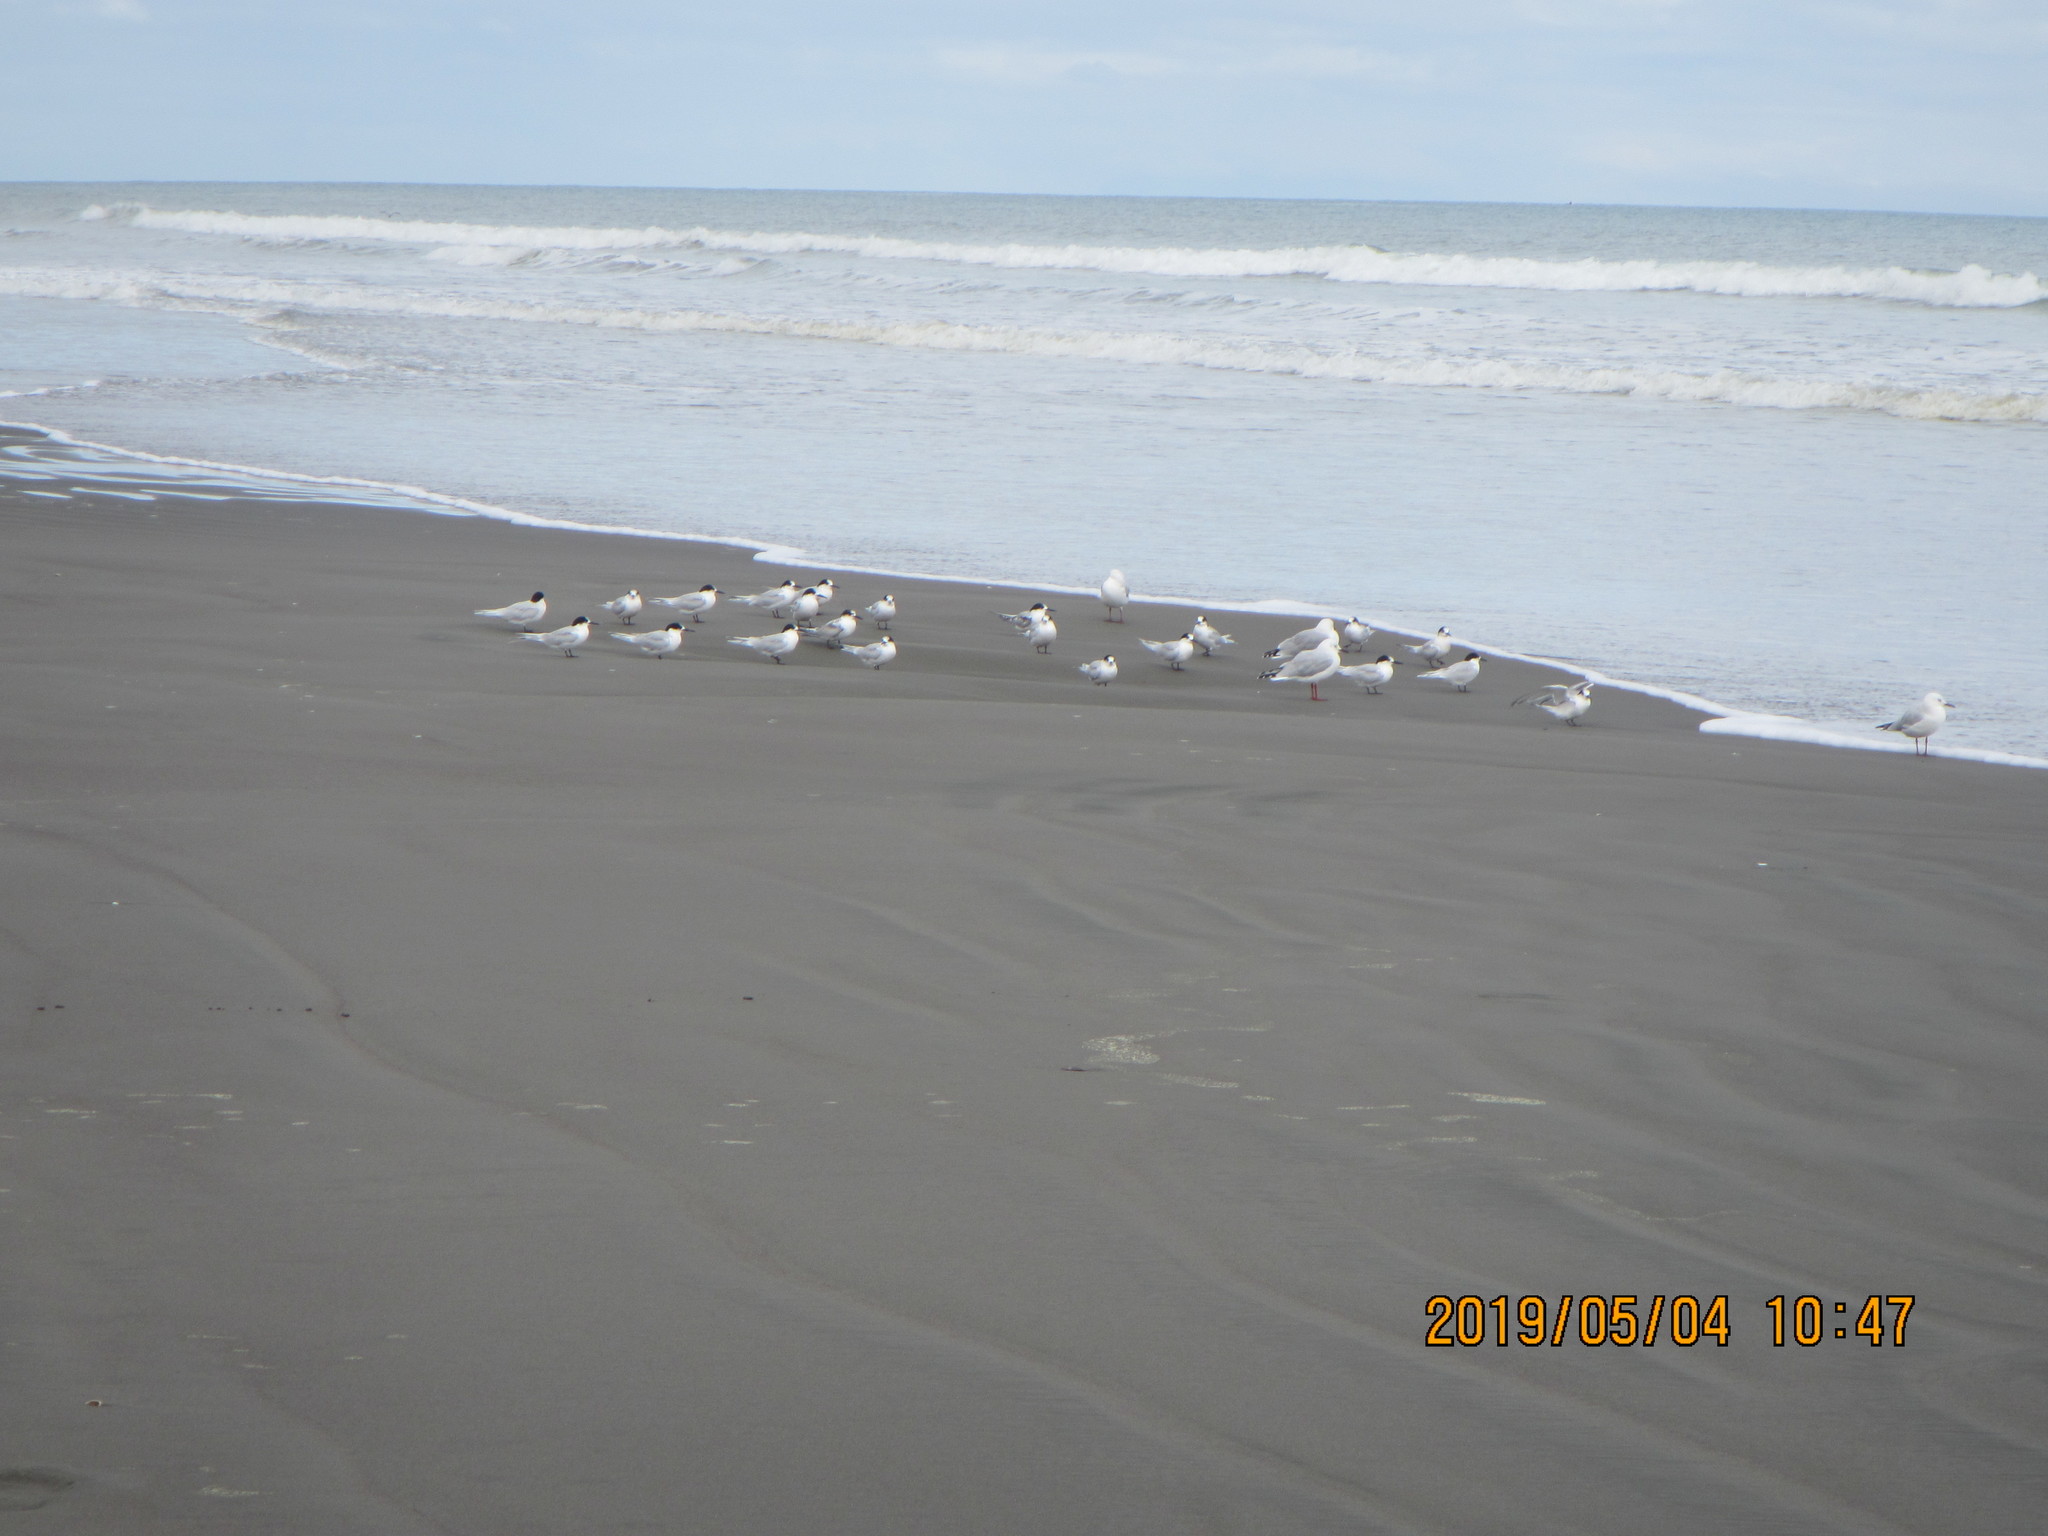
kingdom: Animalia
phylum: Chordata
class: Aves
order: Charadriiformes
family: Laridae
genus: Sterna
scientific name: Sterna striata
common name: White-fronted tern
